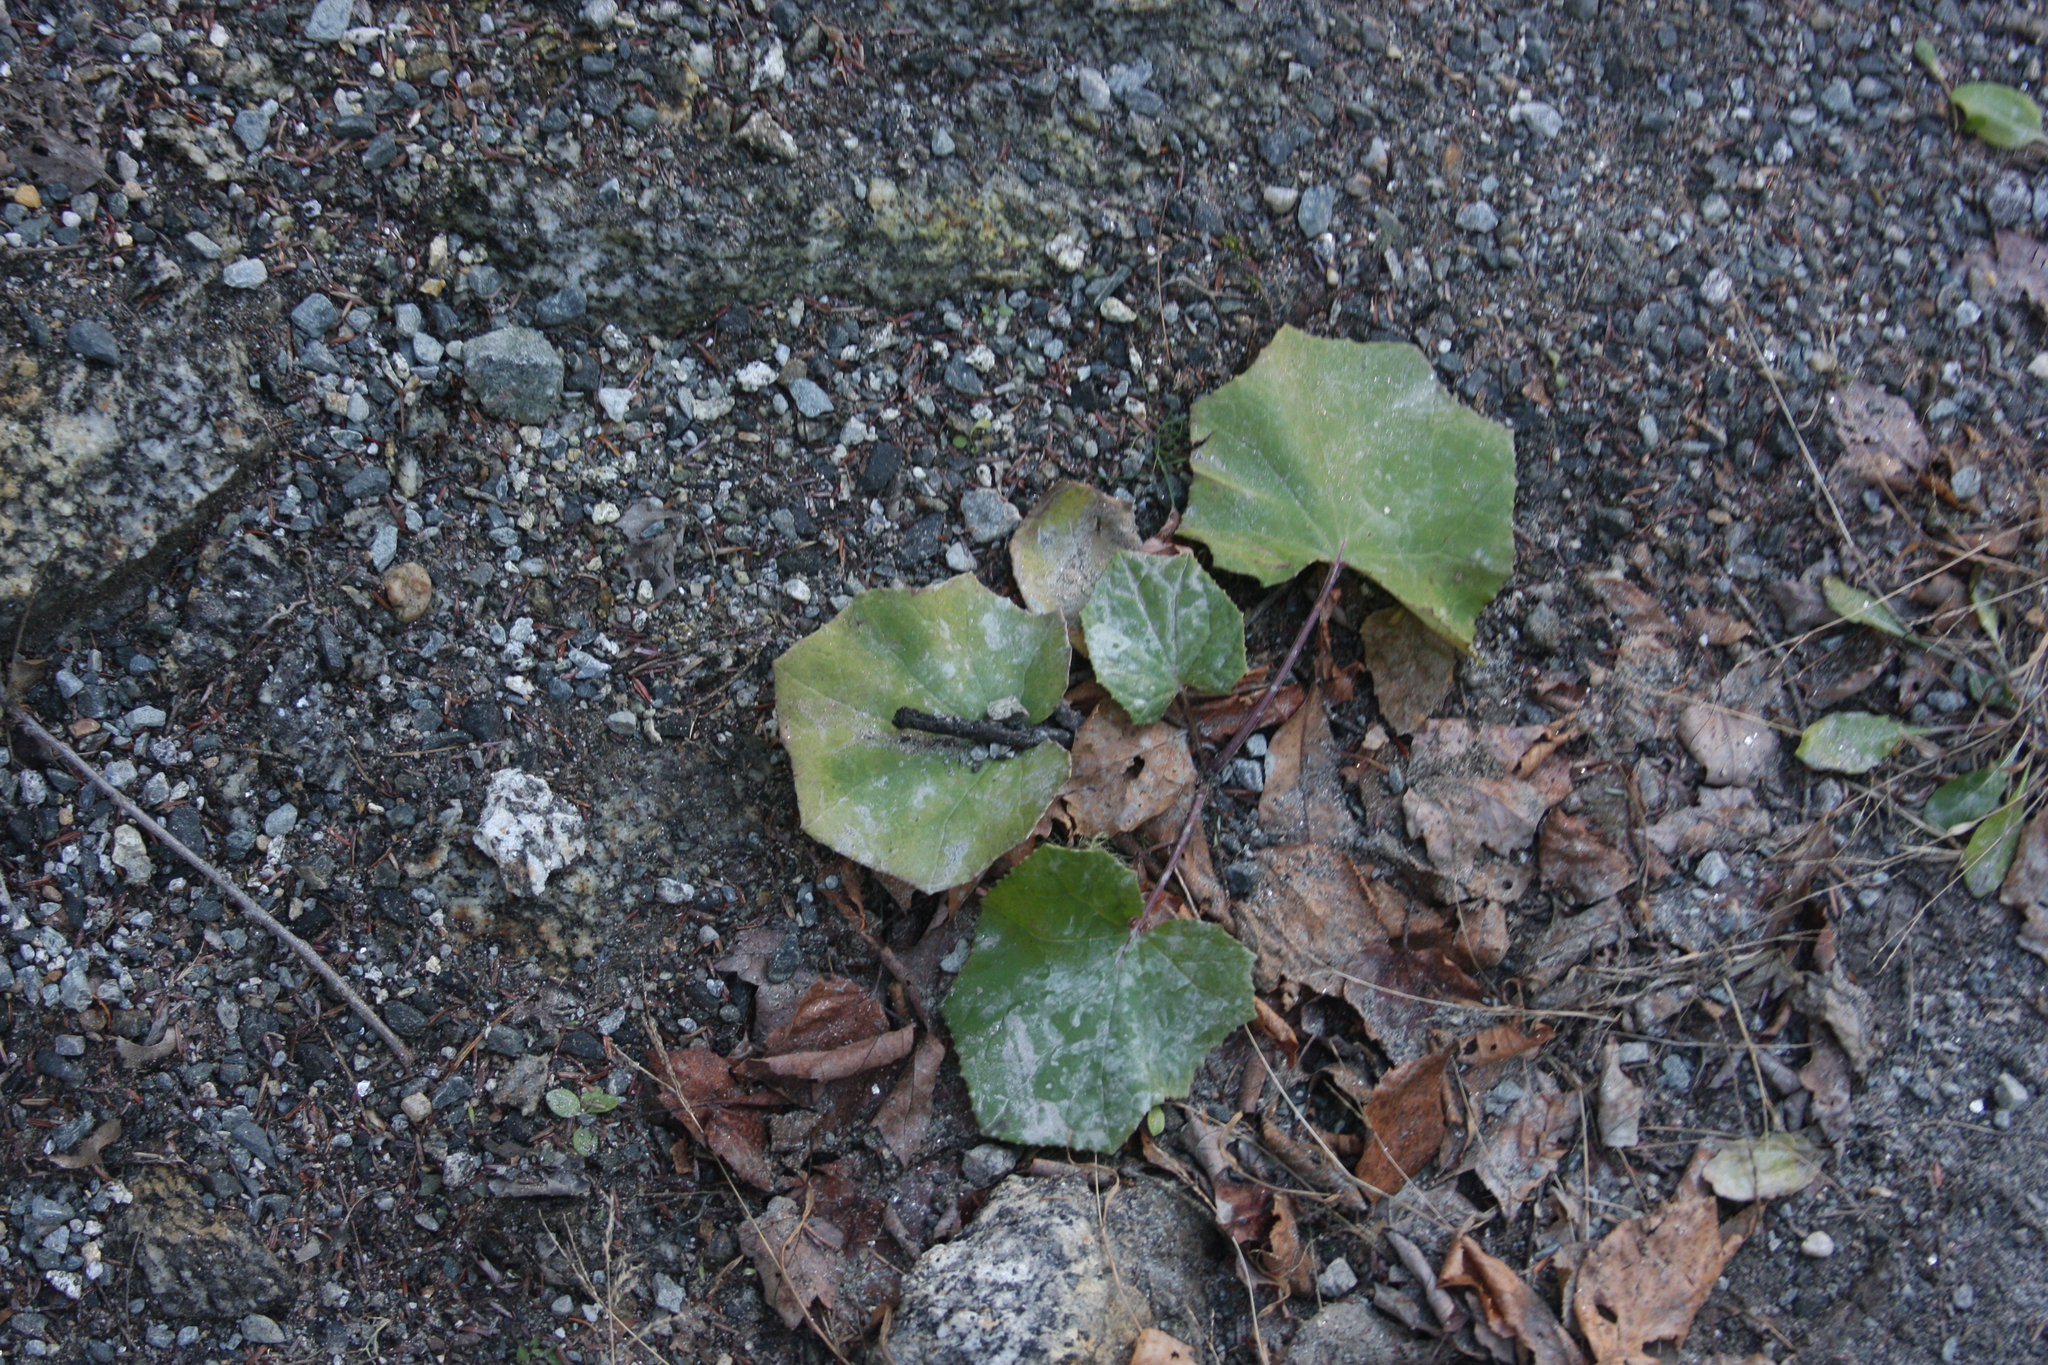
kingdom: Plantae
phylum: Tracheophyta
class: Magnoliopsida
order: Asterales
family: Asteraceae
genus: Tussilago
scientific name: Tussilago farfara
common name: Coltsfoot
